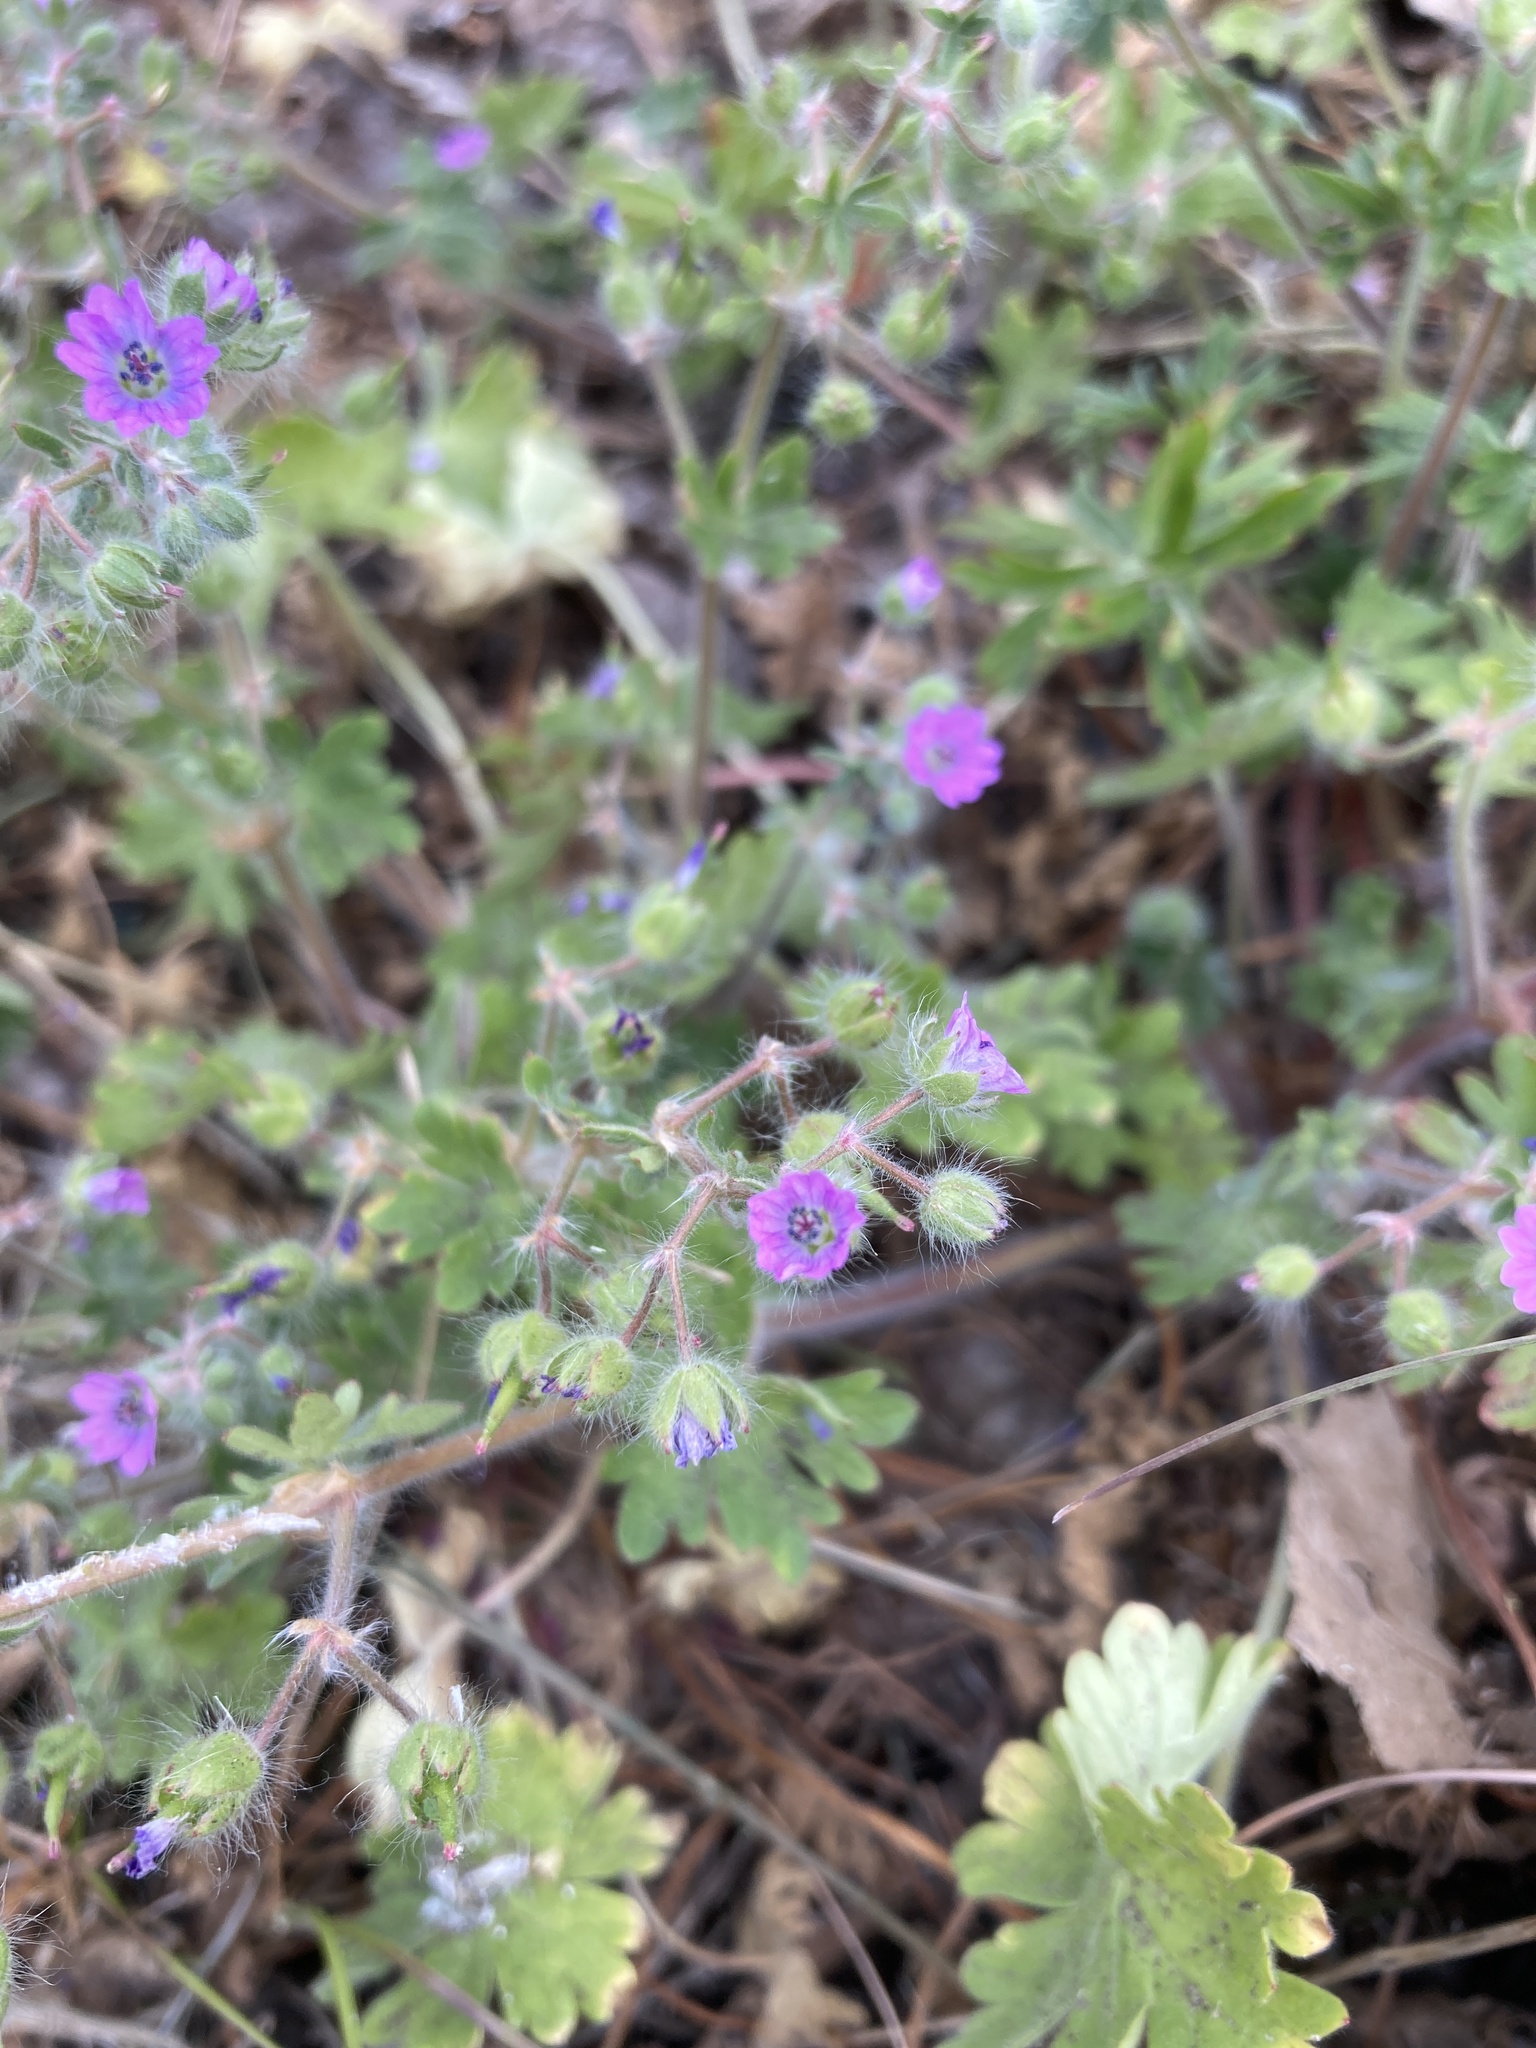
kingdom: Plantae
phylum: Tracheophyta
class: Magnoliopsida
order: Geraniales
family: Geraniaceae
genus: Geranium
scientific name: Geranium molle
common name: Dove's-foot crane's-bill
